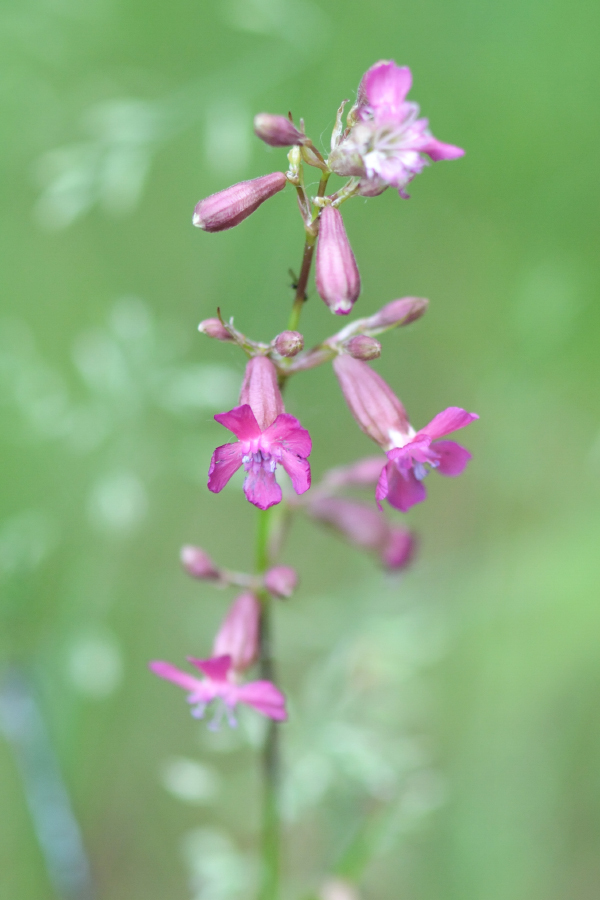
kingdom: Plantae
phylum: Tracheophyta
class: Magnoliopsida
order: Caryophyllales
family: Caryophyllaceae
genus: Viscaria
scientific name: Viscaria vulgaris
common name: Clammy campion
